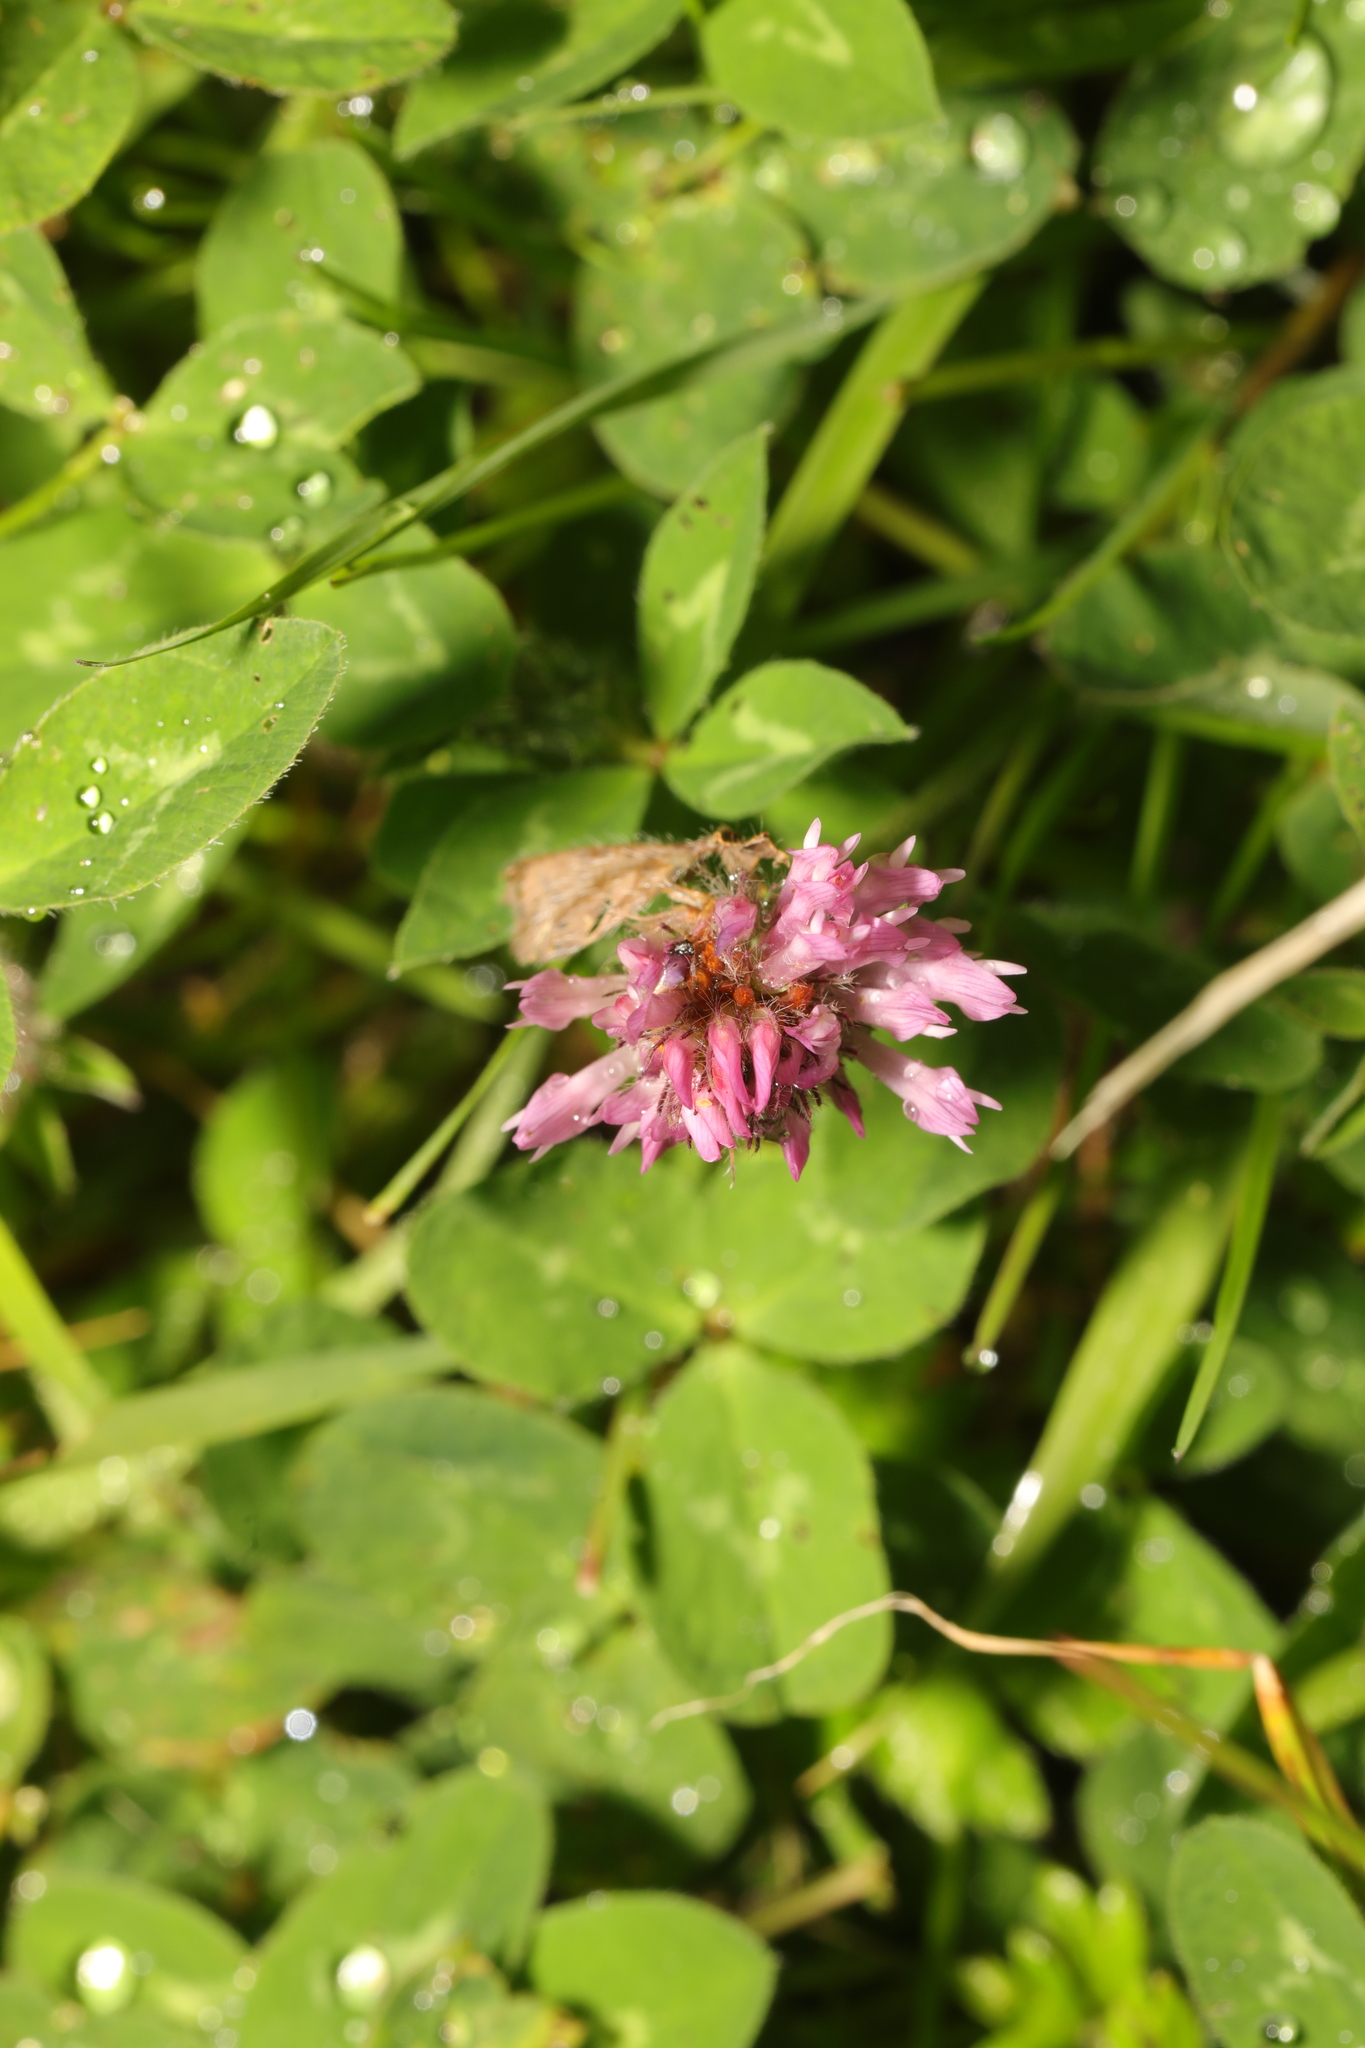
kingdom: Plantae
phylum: Tracheophyta
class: Magnoliopsida
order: Fabales
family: Fabaceae
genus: Trifolium
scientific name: Trifolium pratense
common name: Red clover
